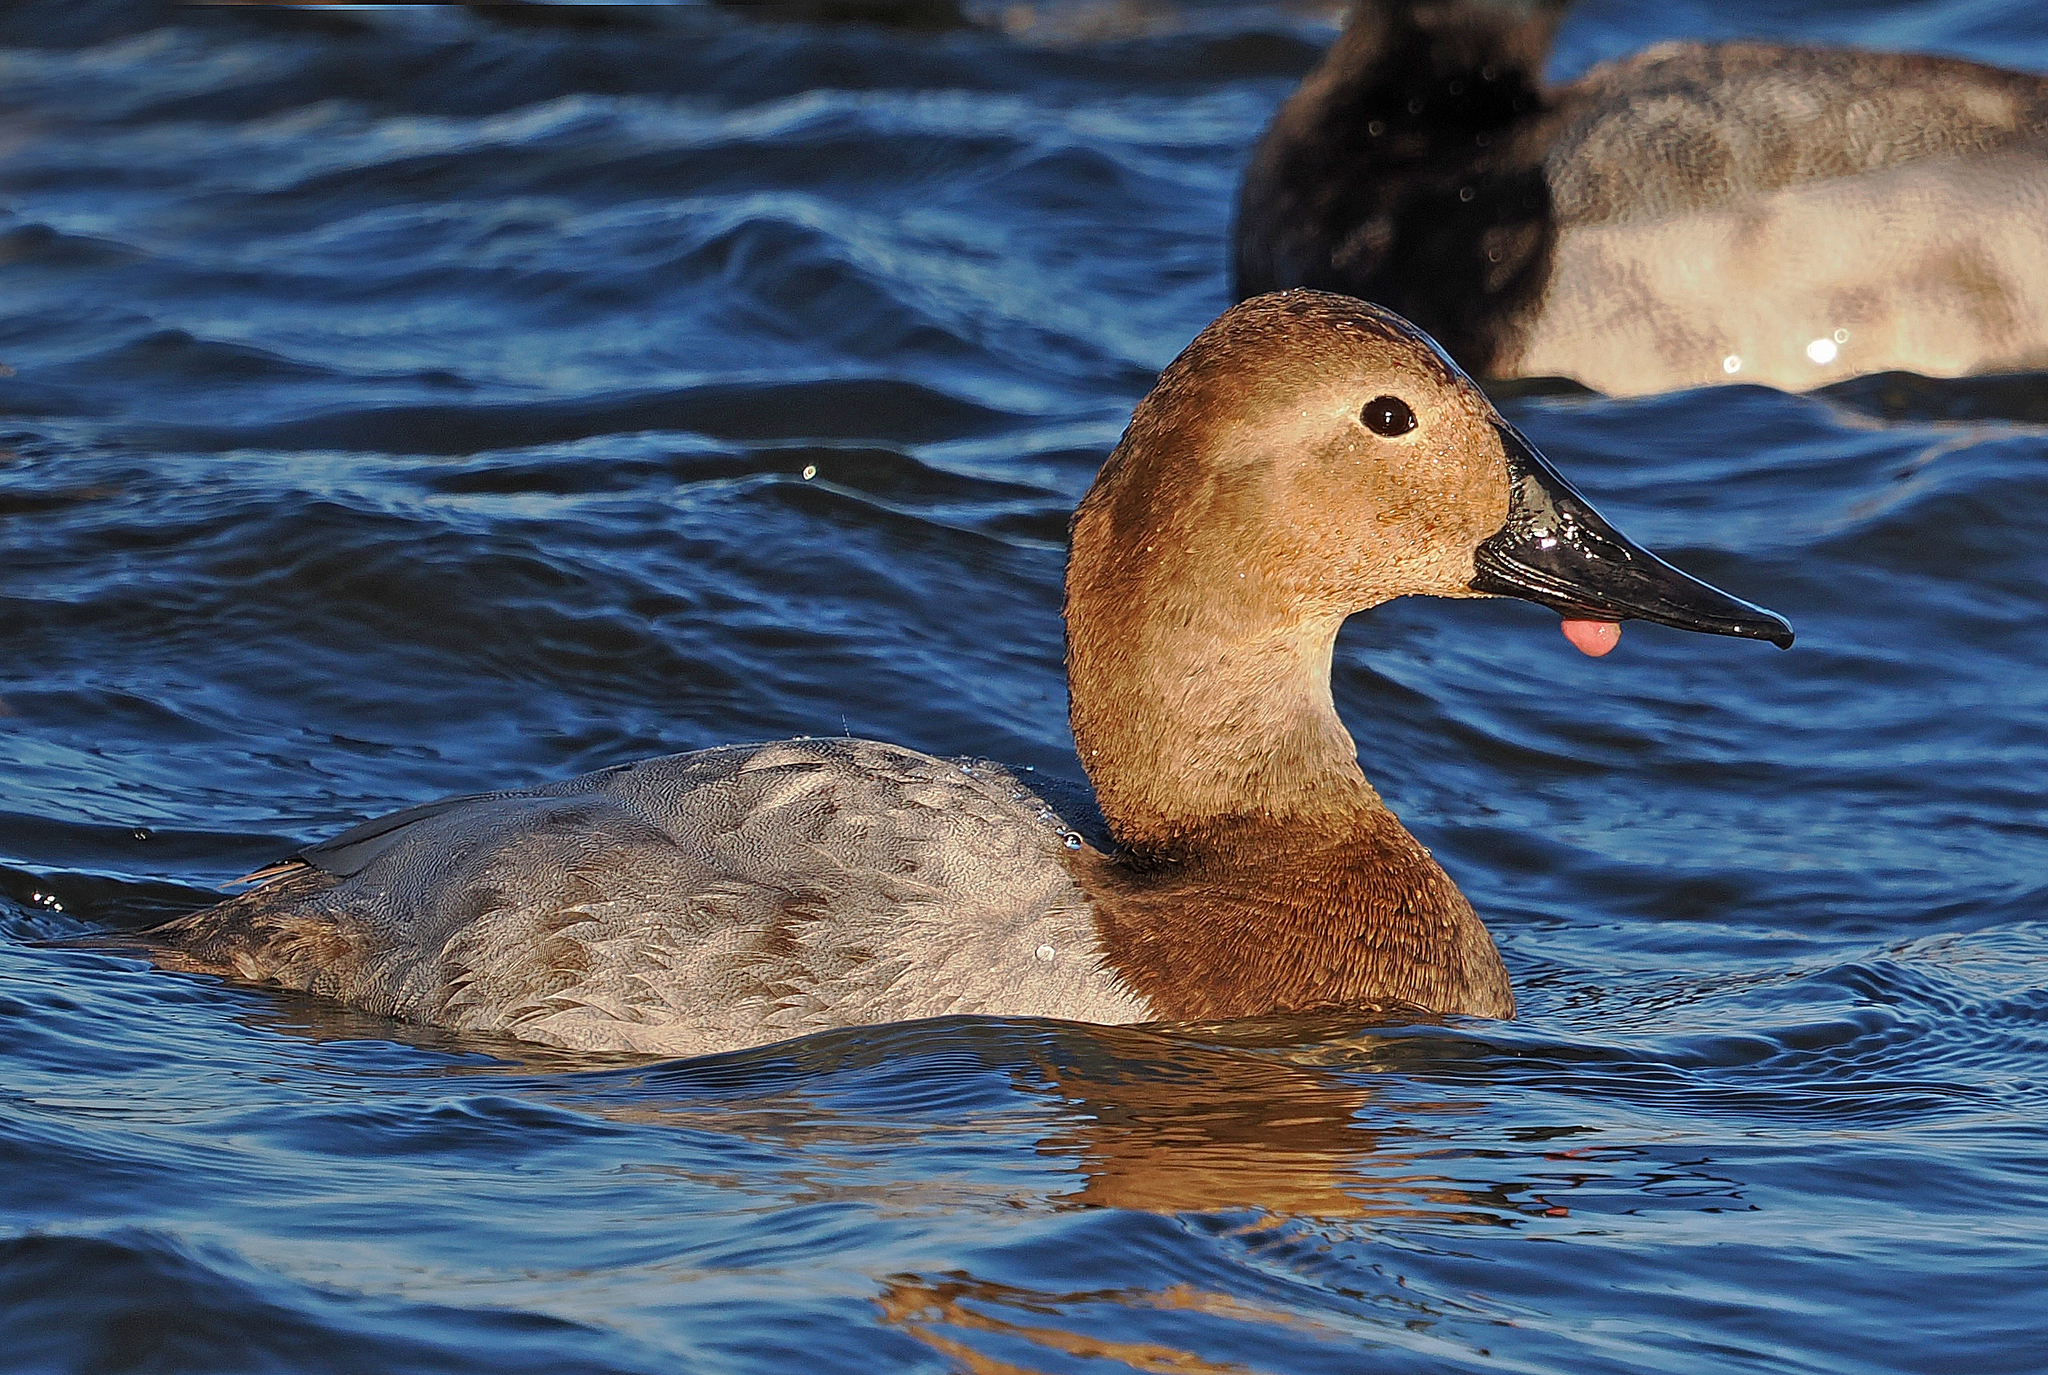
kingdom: Animalia
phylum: Chordata
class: Aves
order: Anseriformes
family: Anatidae
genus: Aythya
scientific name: Aythya valisineria
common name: Canvasback
